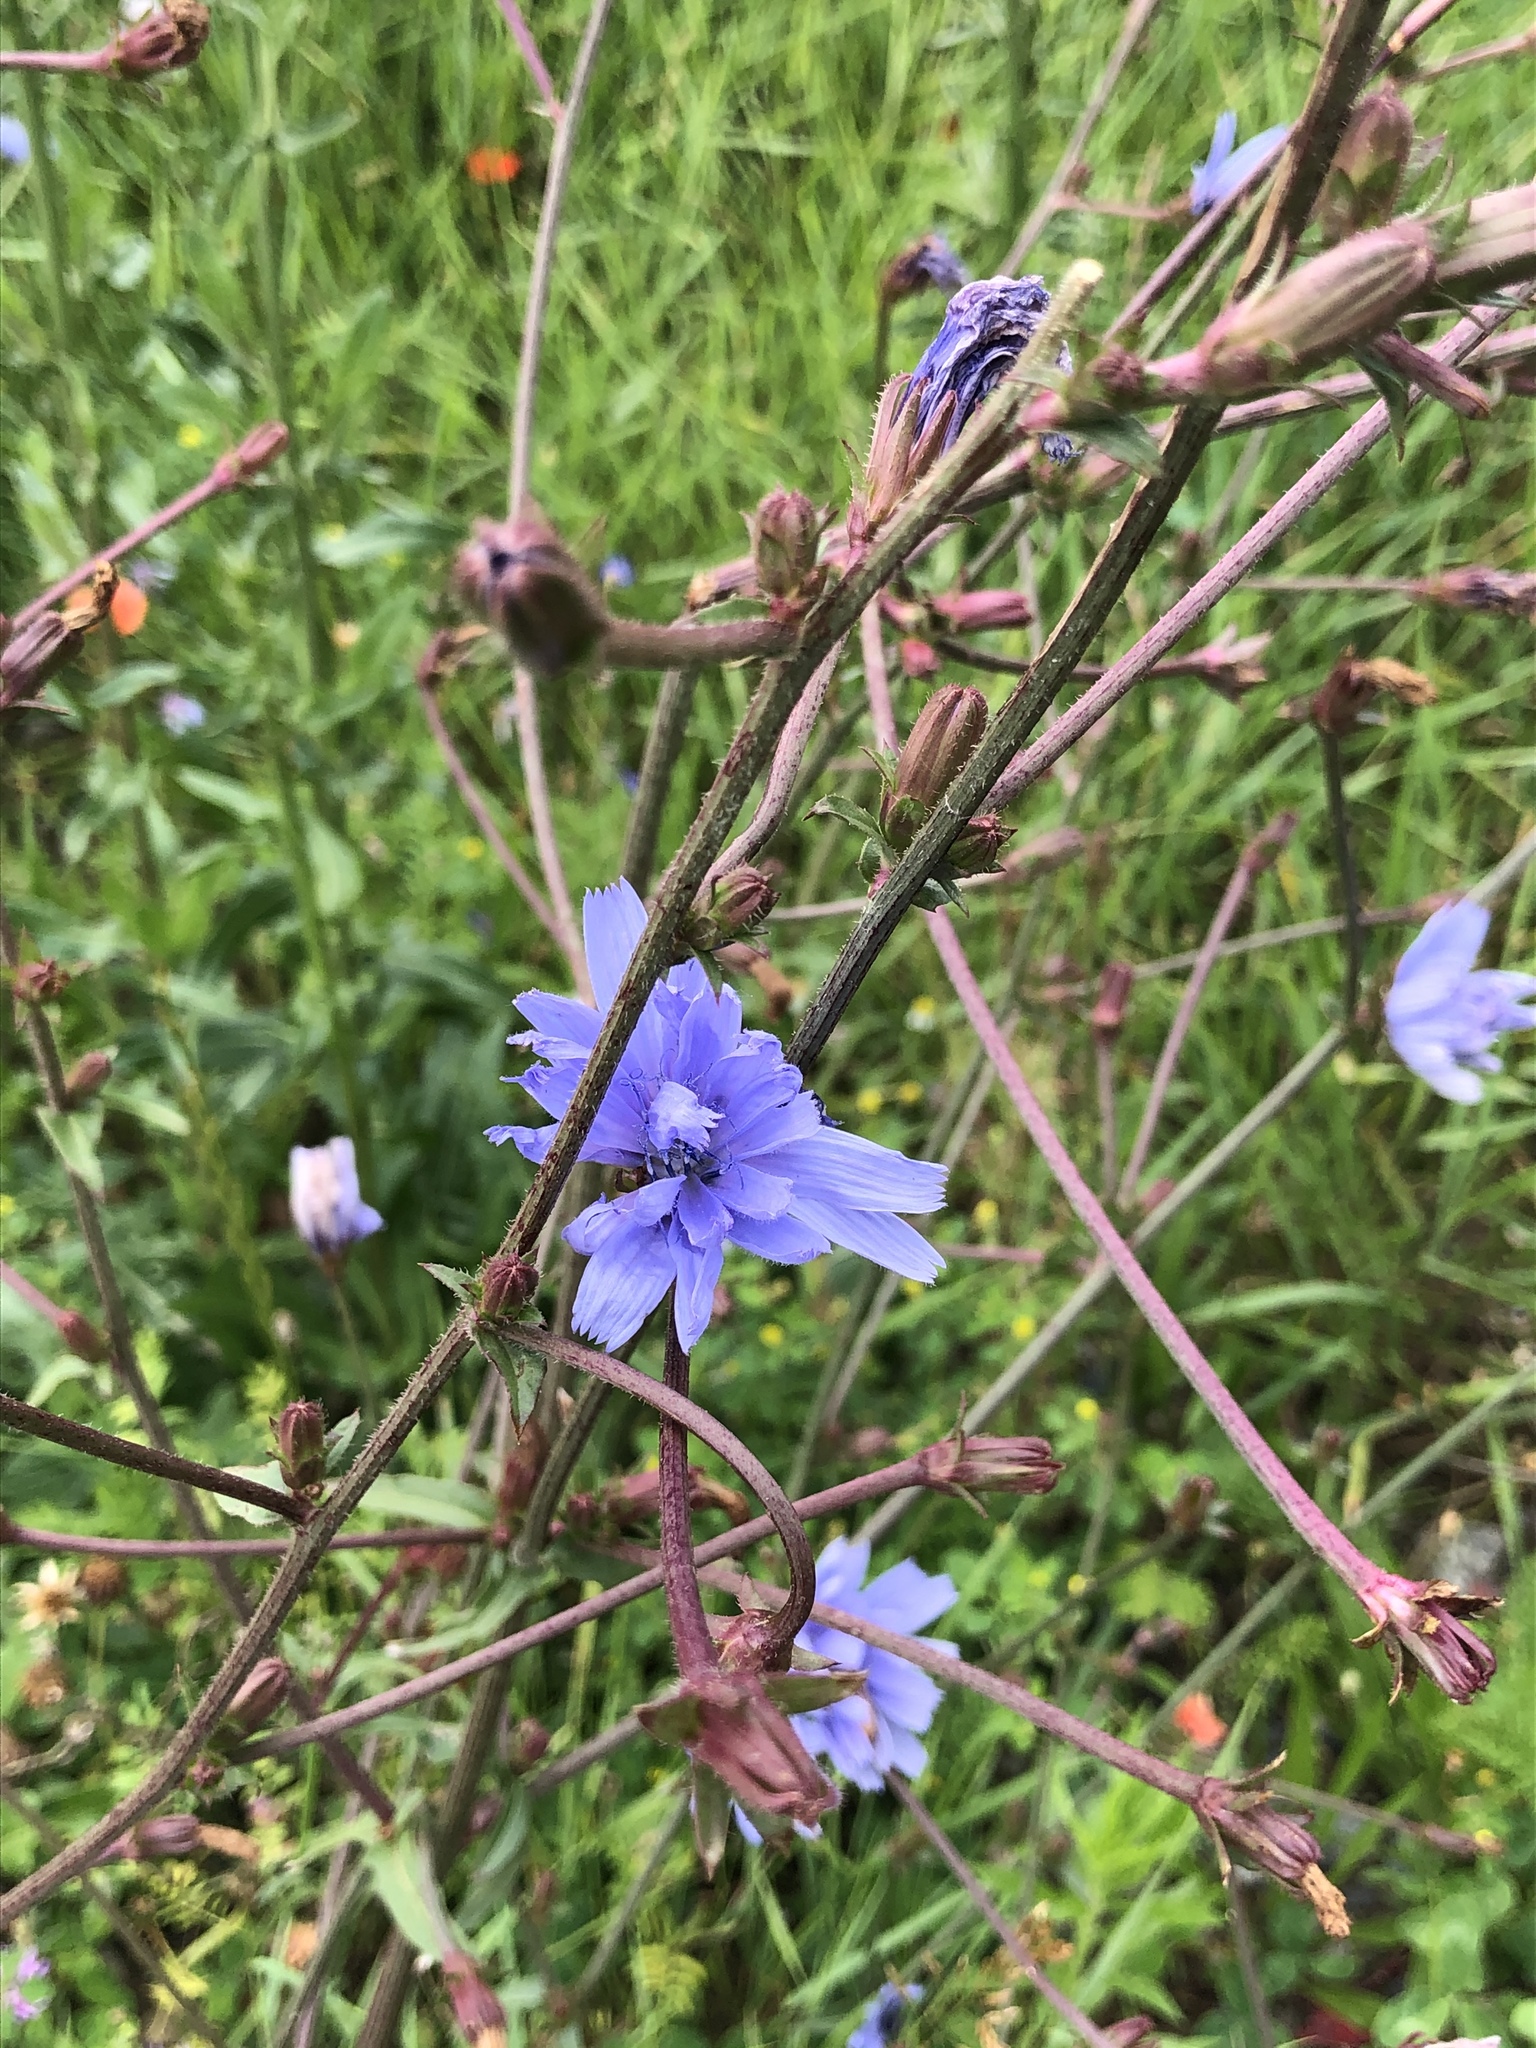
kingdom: Plantae
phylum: Tracheophyta
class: Magnoliopsida
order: Asterales
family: Asteraceae
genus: Cichorium
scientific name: Cichorium intybus
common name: Chicory
